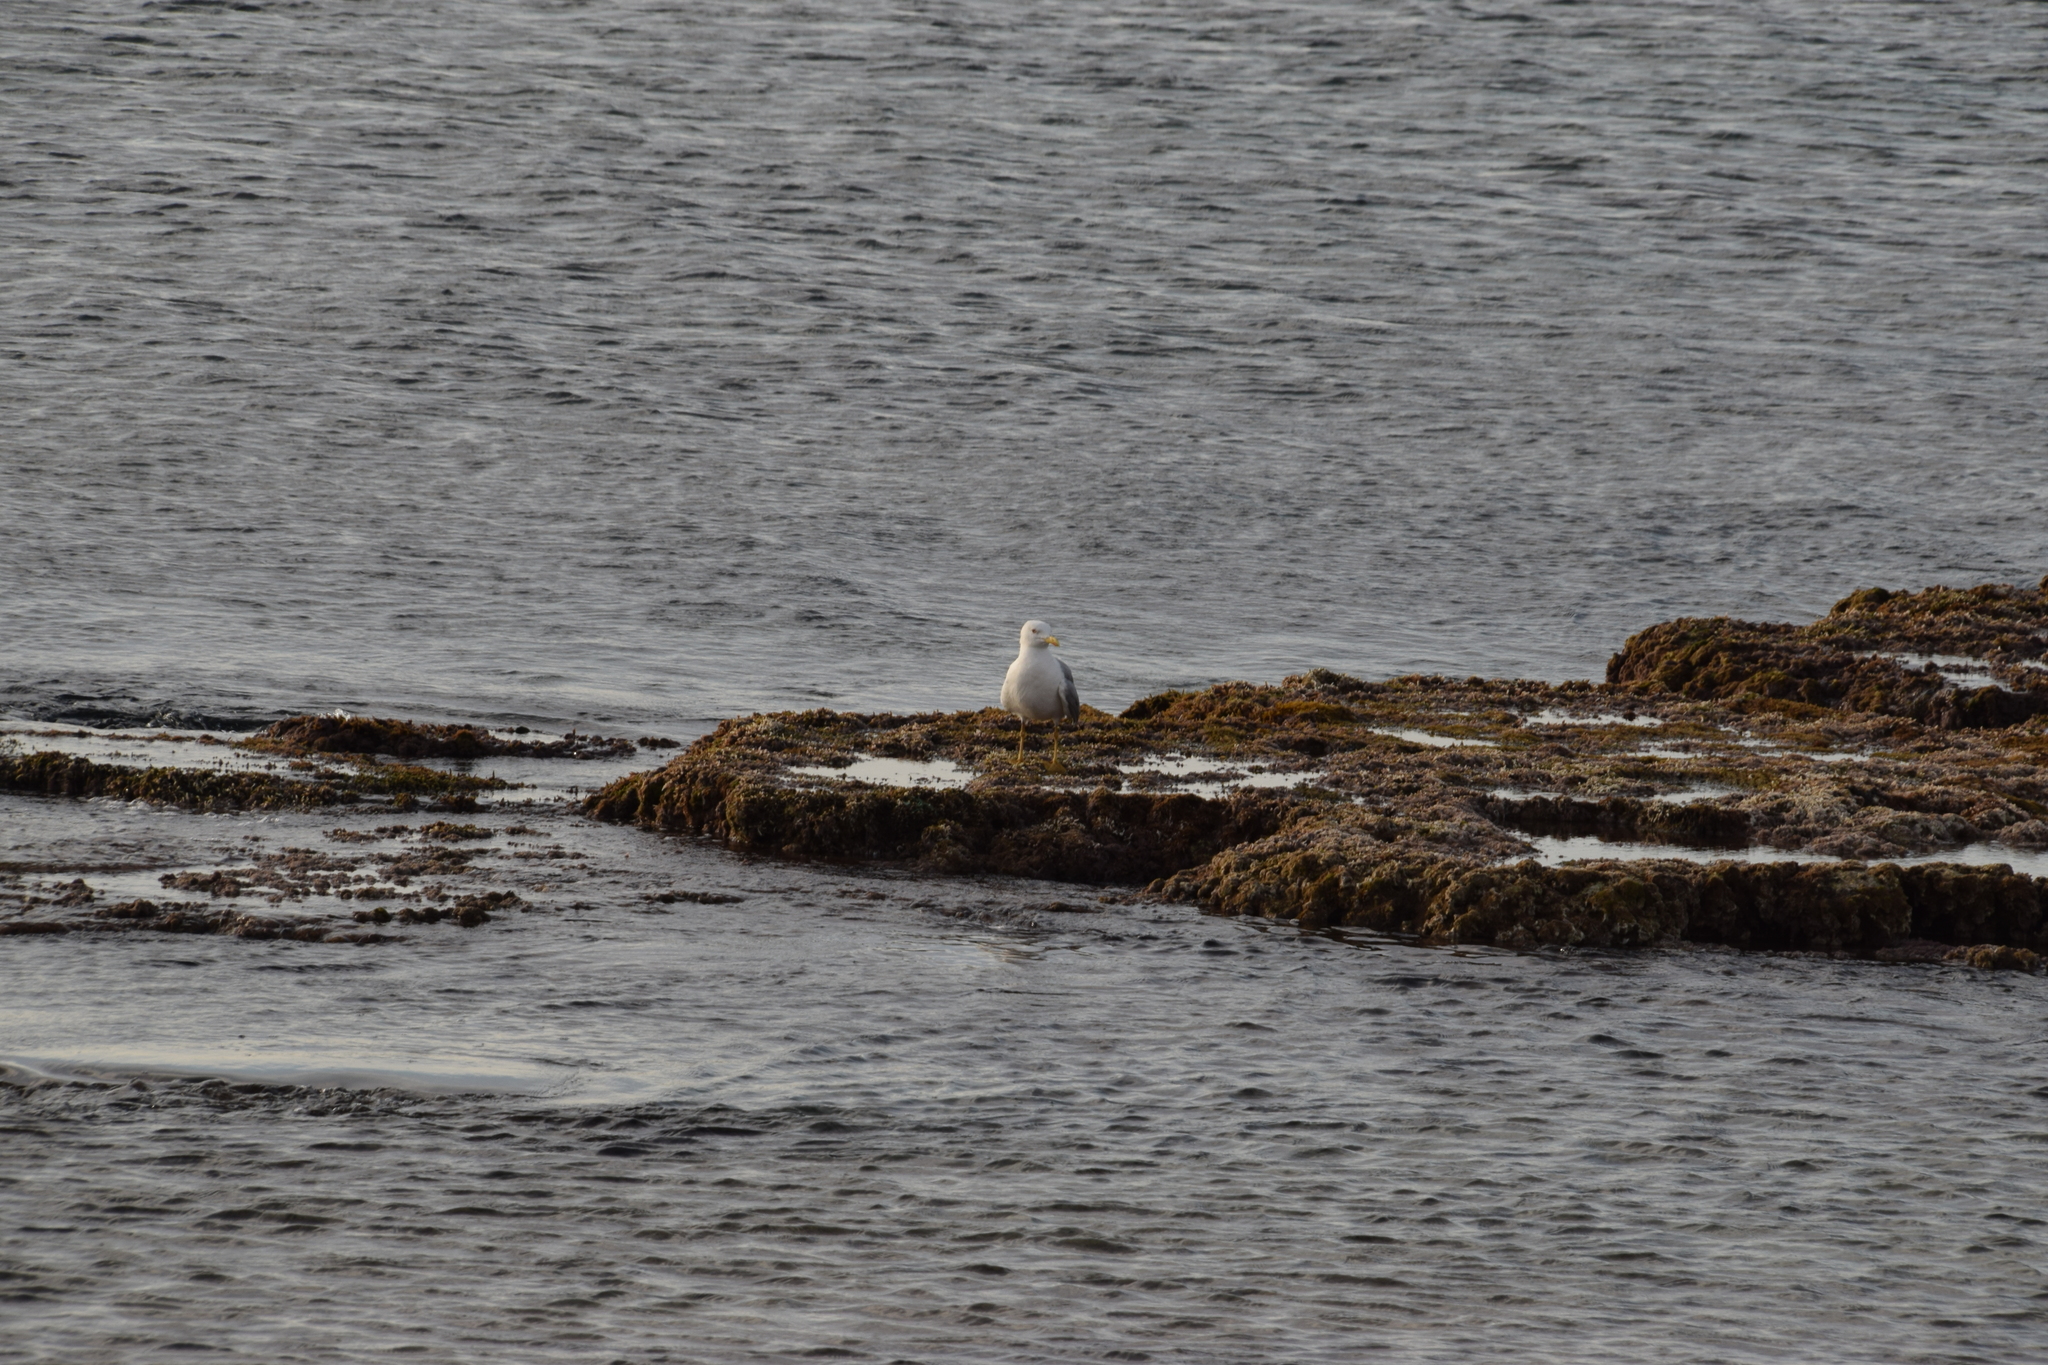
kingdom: Animalia
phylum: Chordata
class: Aves
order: Charadriiformes
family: Laridae
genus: Larus
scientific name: Larus michahellis
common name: Yellow-legged gull
